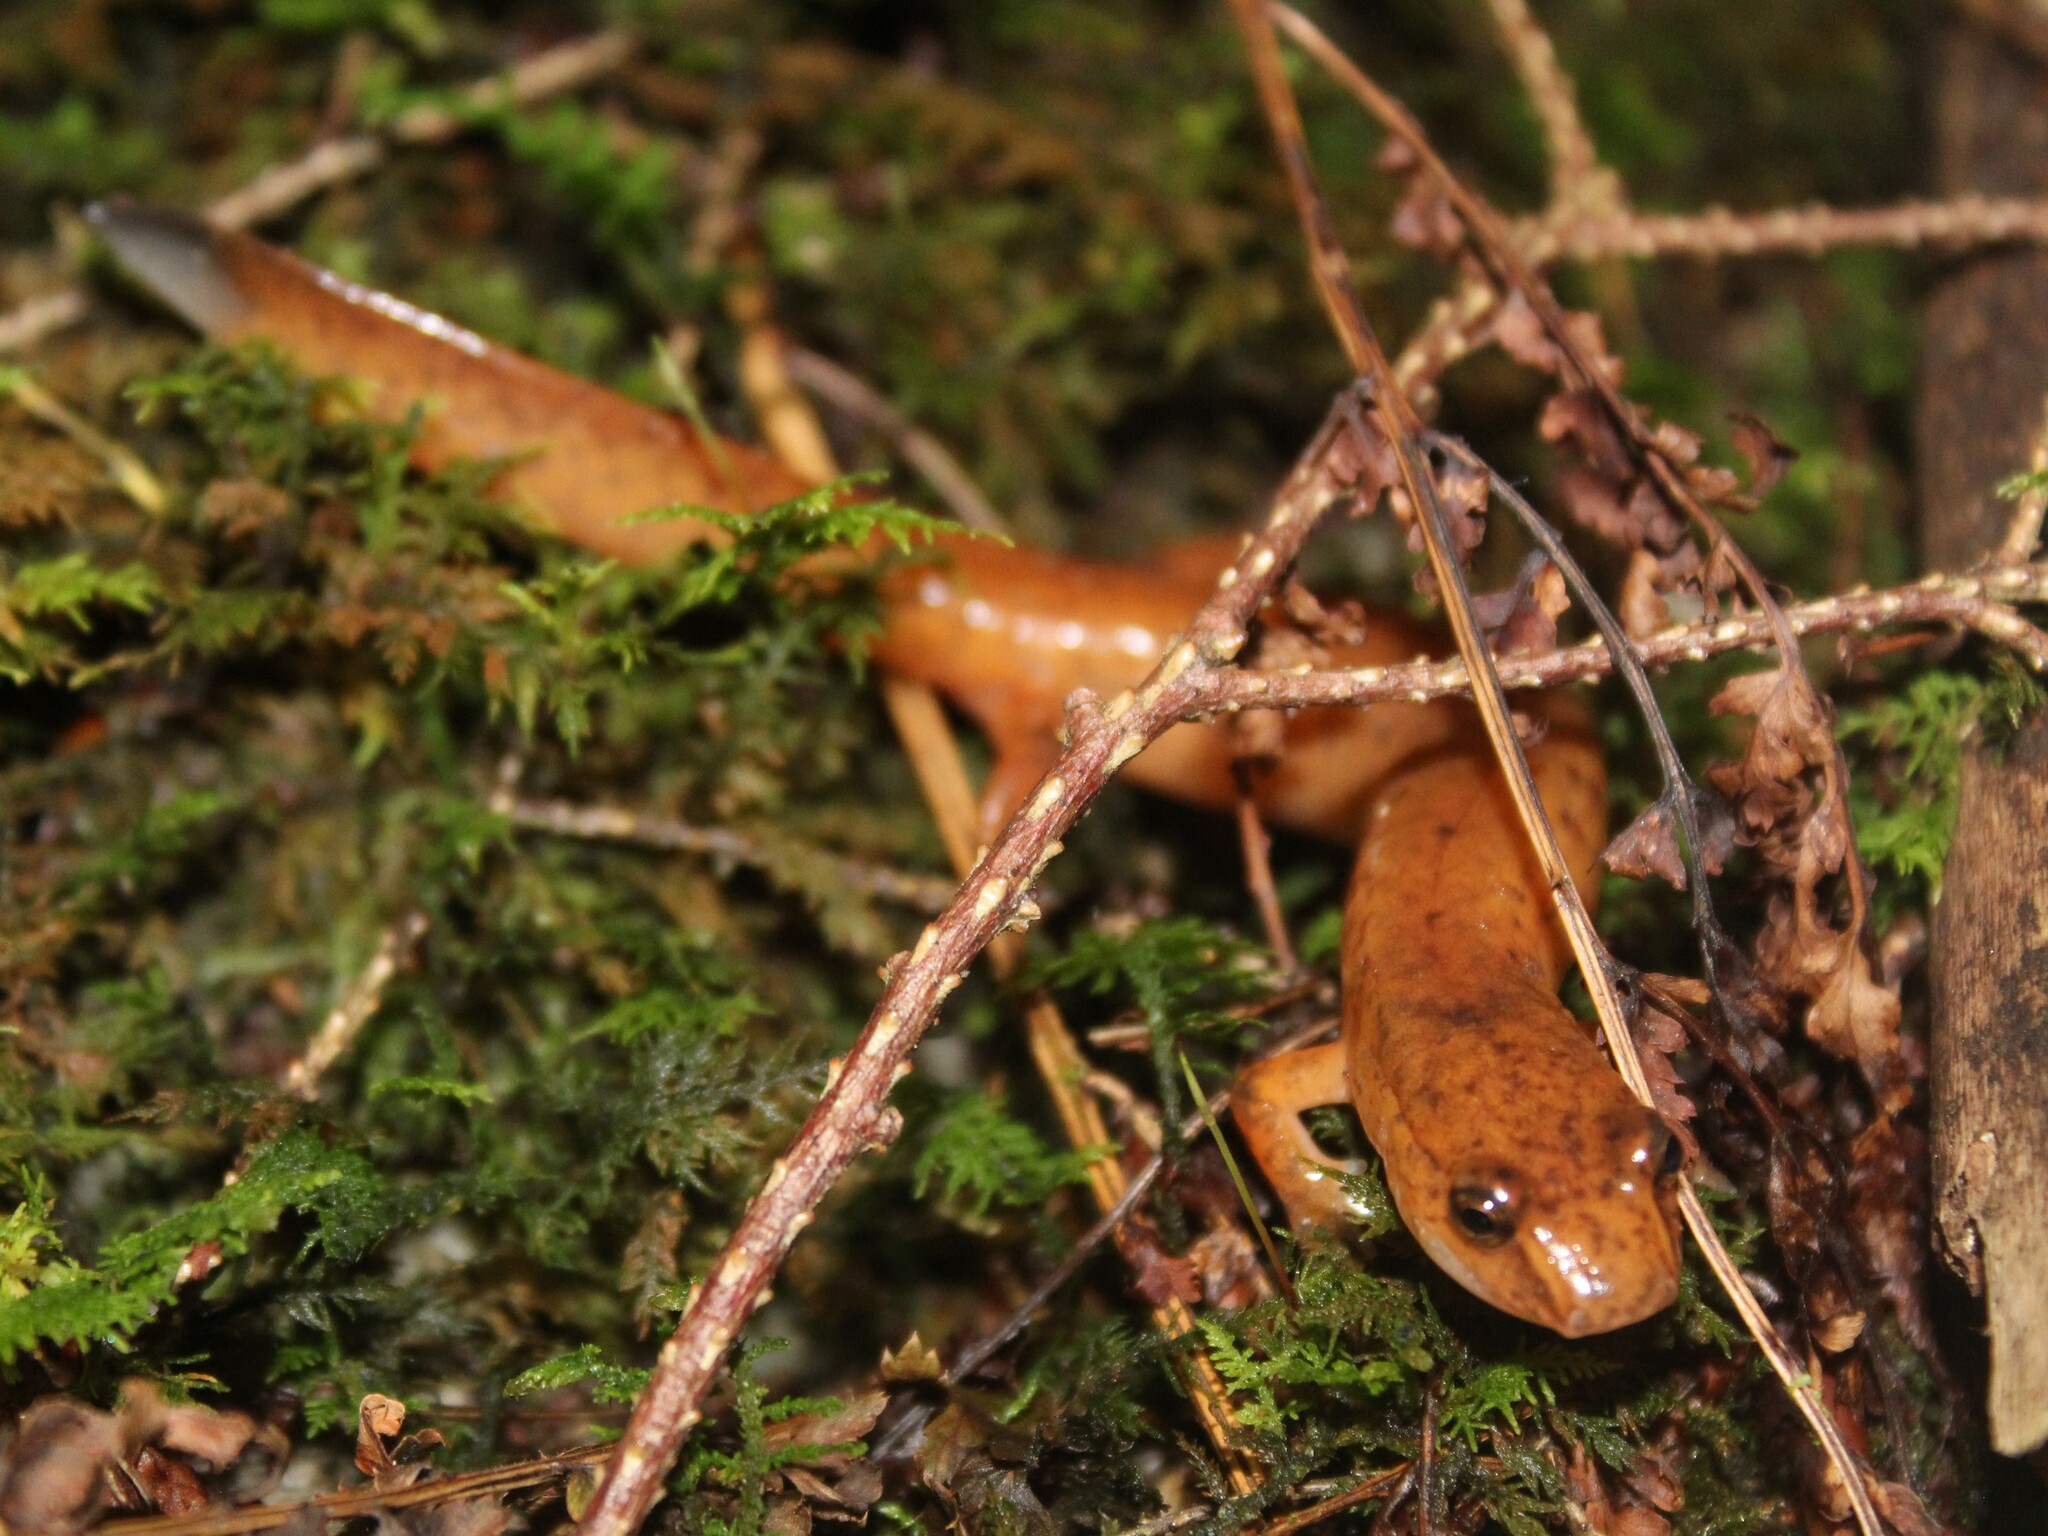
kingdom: Animalia
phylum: Chordata
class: Amphibia
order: Caudata
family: Plethodontidae
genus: Gyrinophilus
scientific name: Gyrinophilus porphyriticus
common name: Spring salamander
